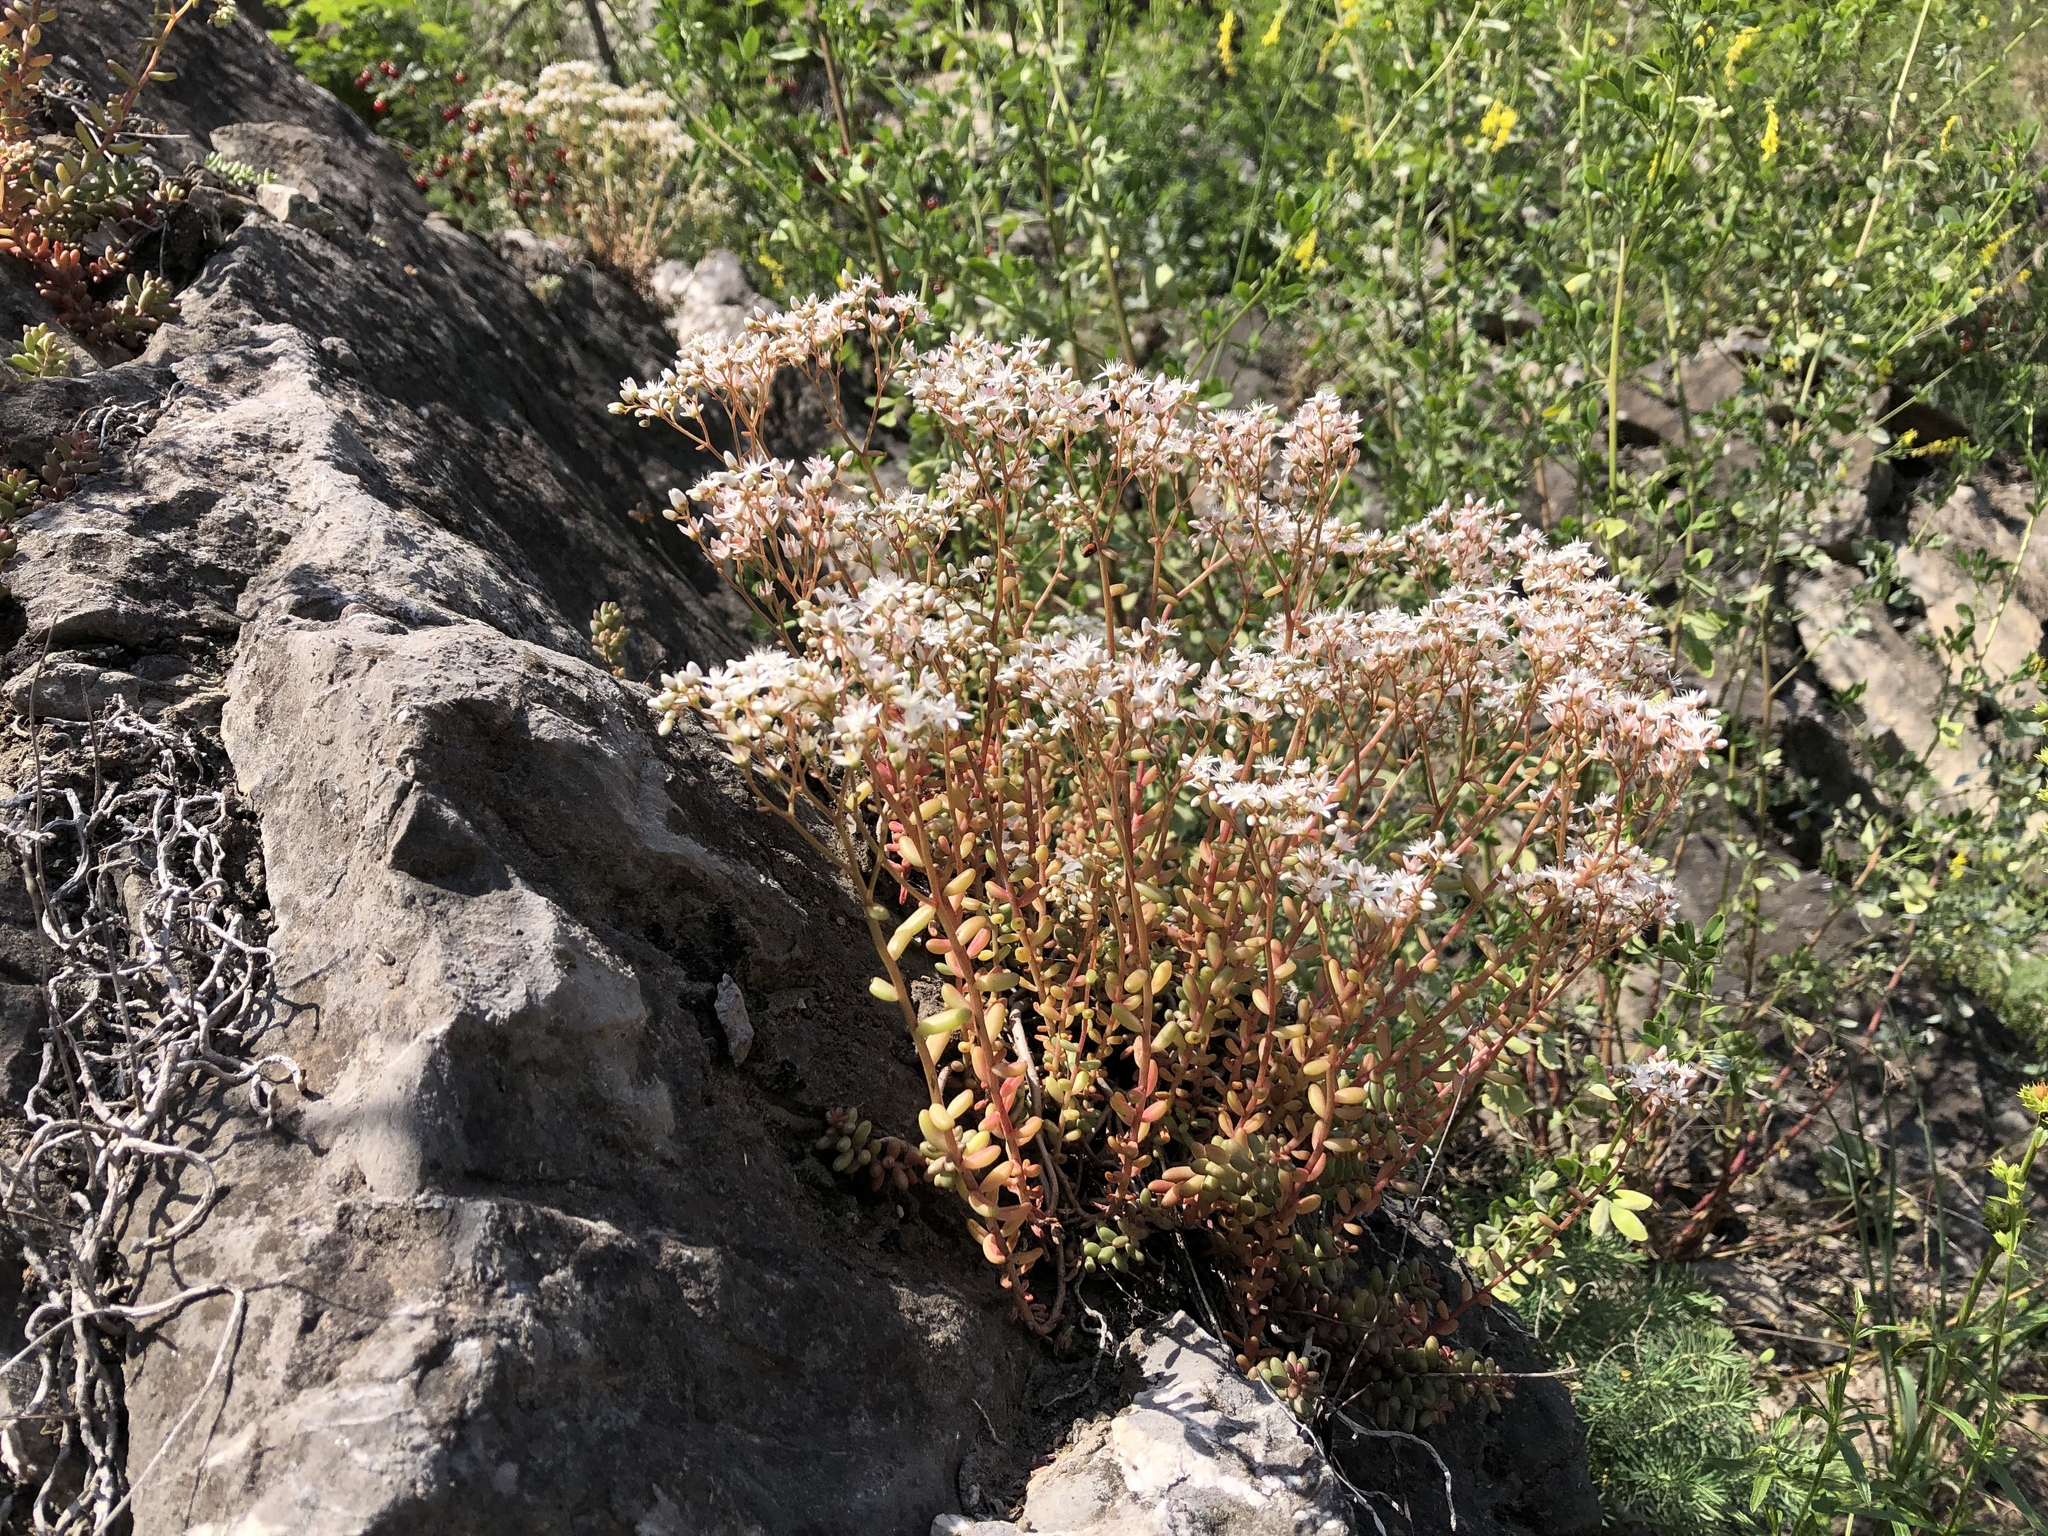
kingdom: Plantae
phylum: Tracheophyta
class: Magnoliopsida
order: Saxifragales
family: Crassulaceae
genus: Sedum
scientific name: Sedum album
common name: White stonecrop
